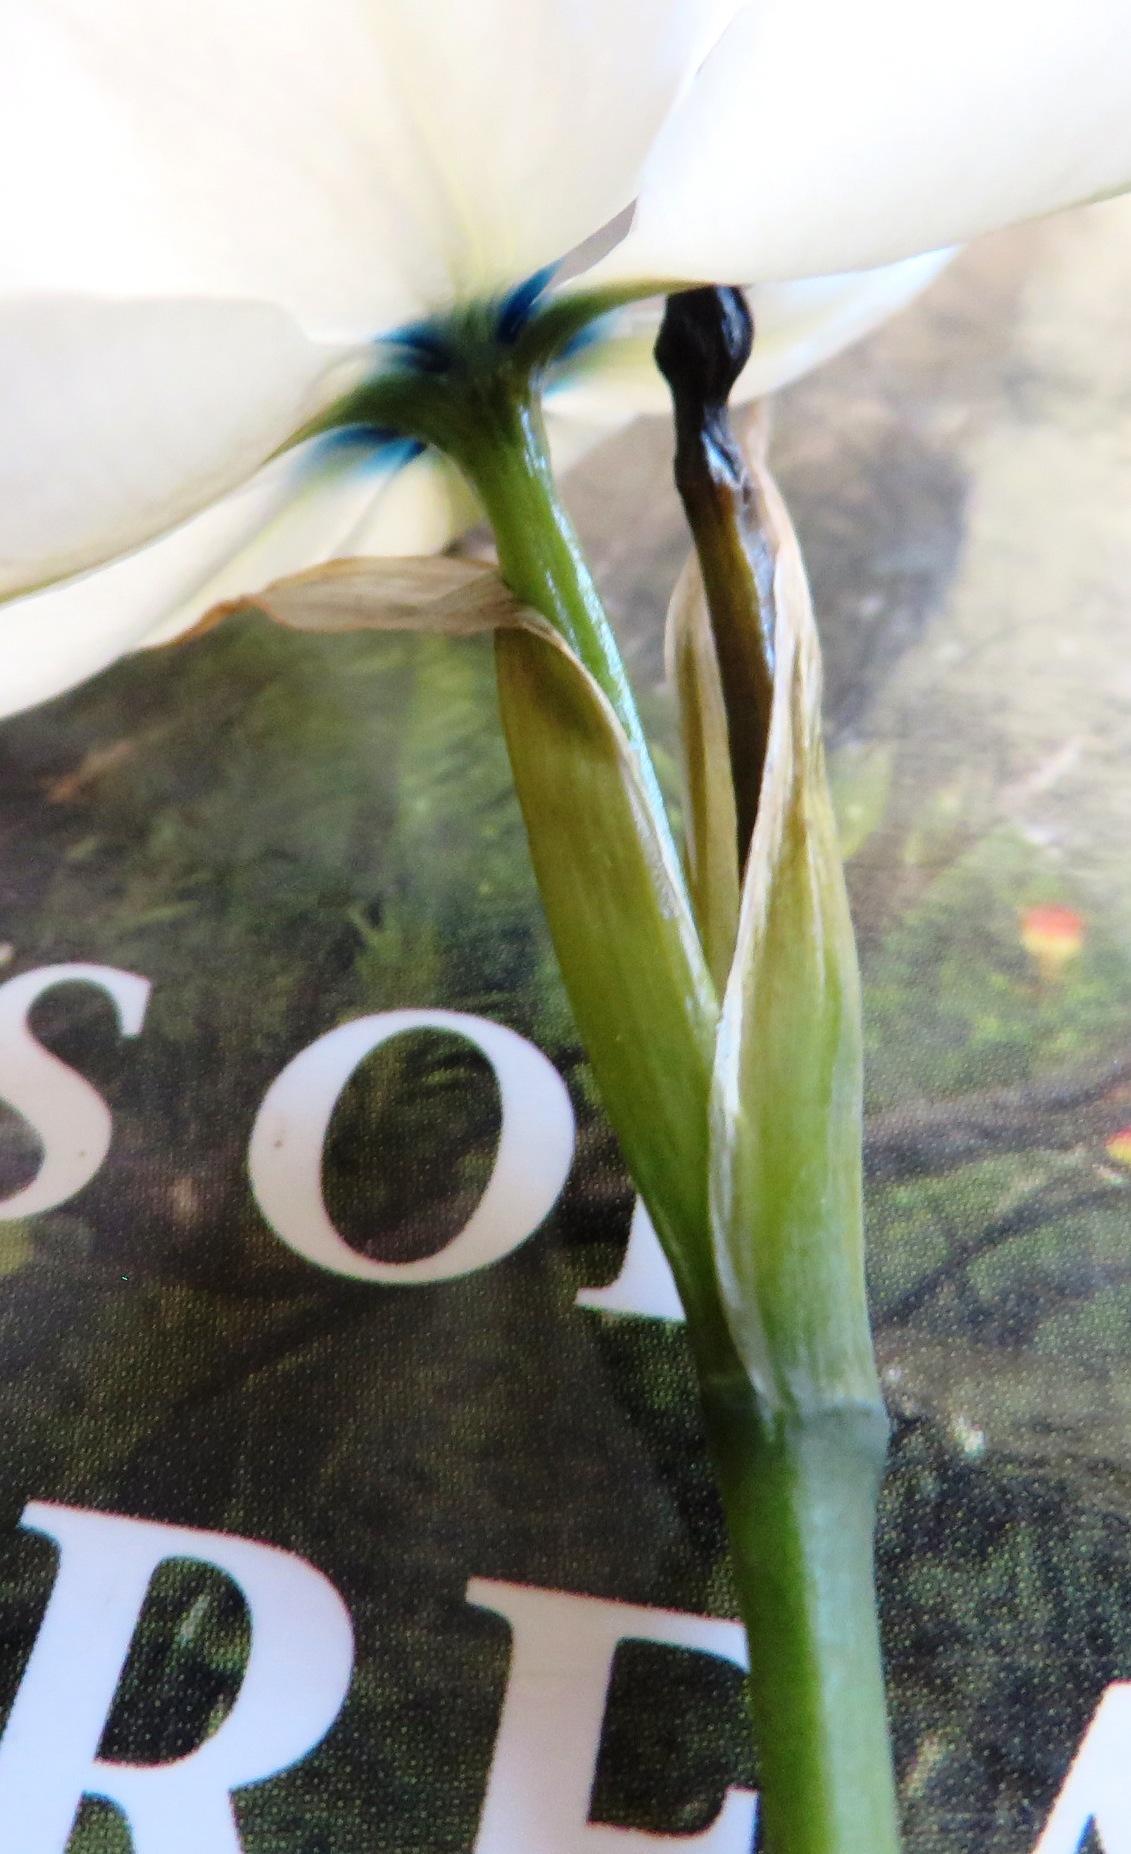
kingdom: Plantae
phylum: Tracheophyta
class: Liliopsida
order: Asparagales
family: Iridaceae
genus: Aristea
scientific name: Aristea cantharophila
